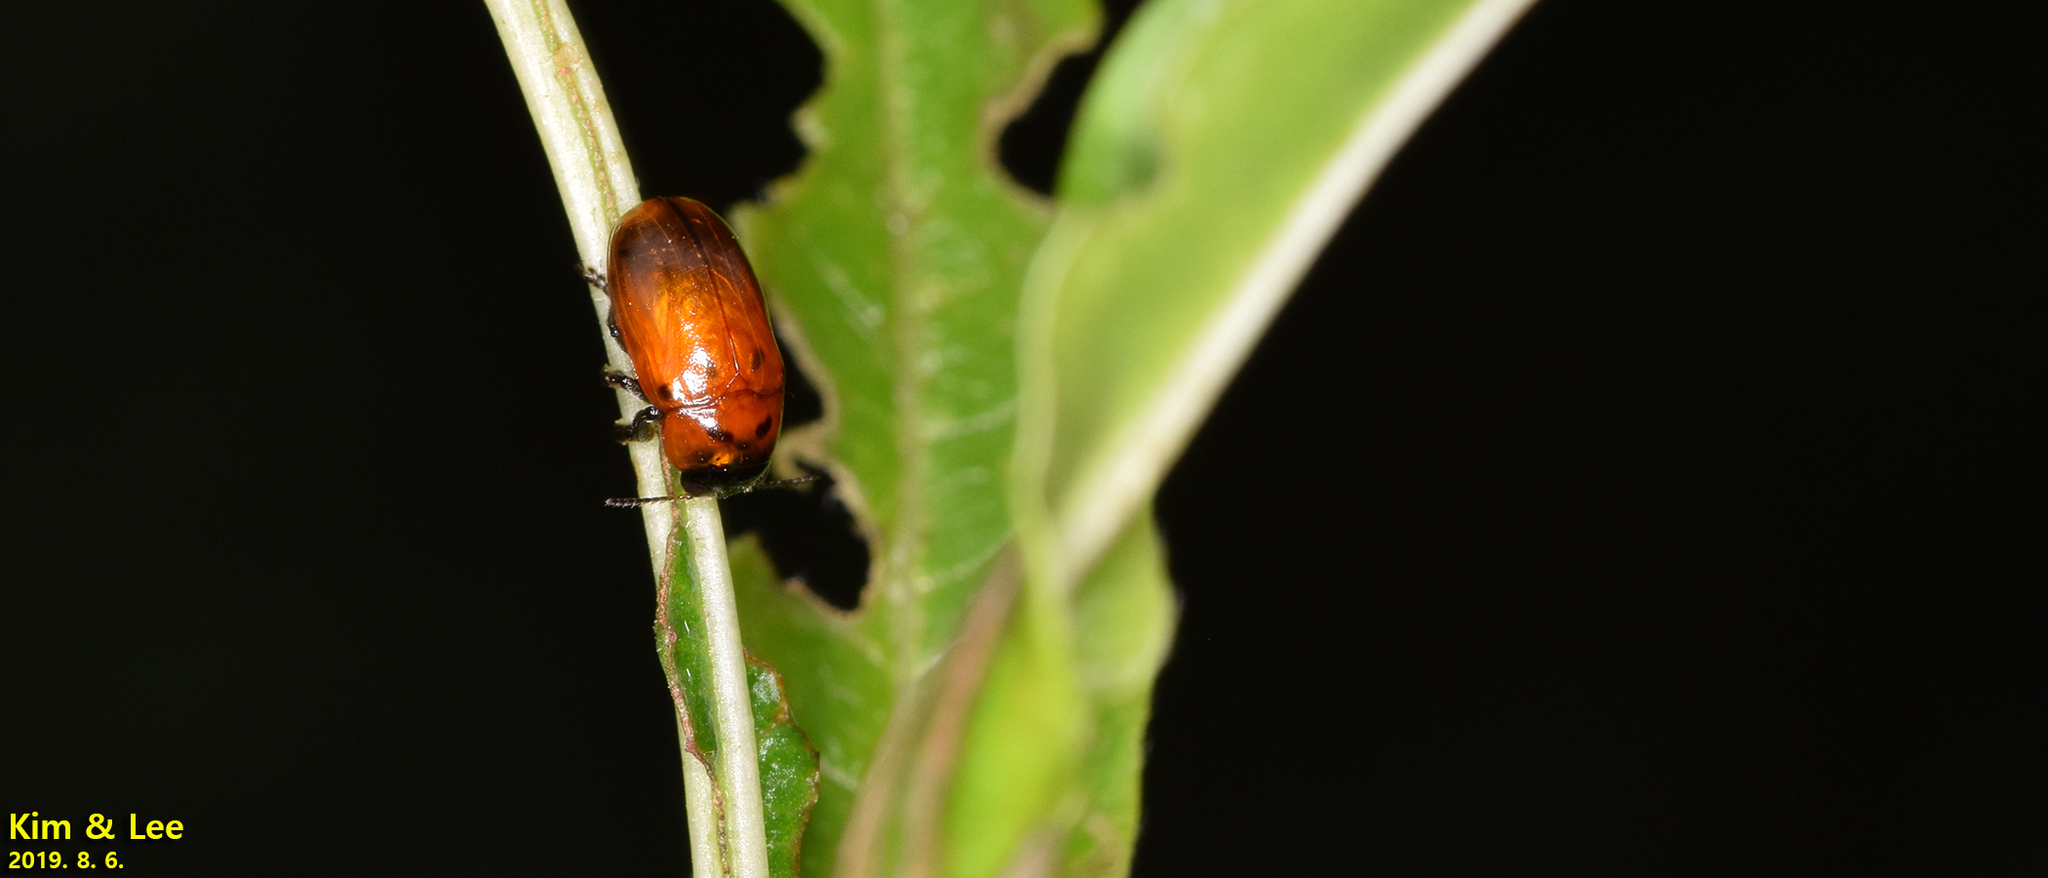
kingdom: Animalia
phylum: Arthropoda
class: Insecta
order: Coleoptera
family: Chrysomelidae
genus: Physosmaragdina
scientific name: Physosmaragdina nigrifrons
